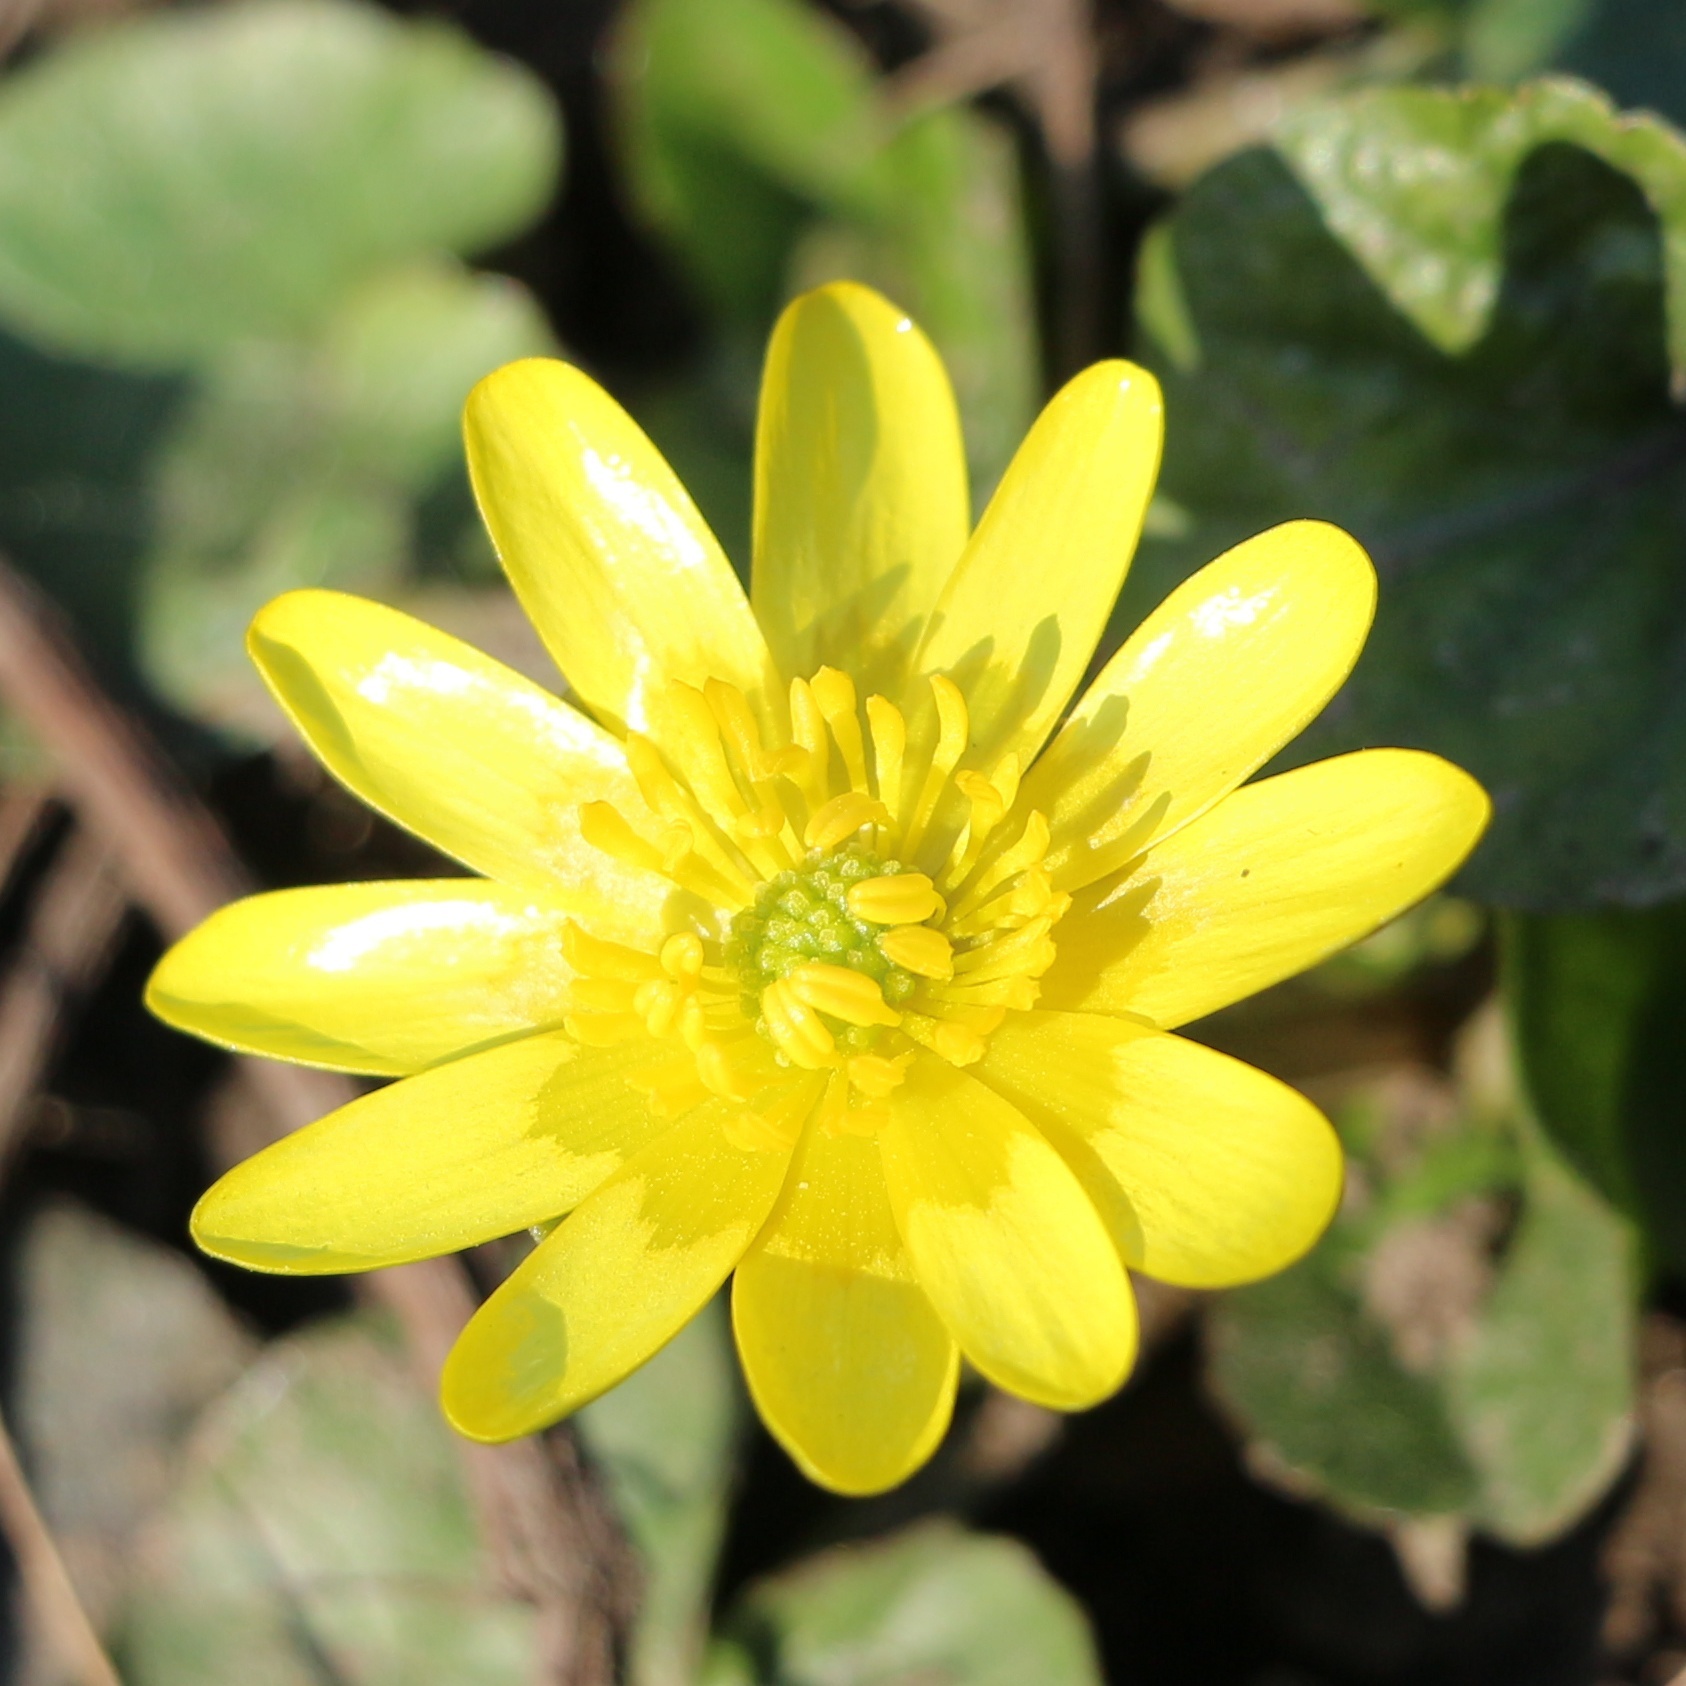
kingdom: Plantae
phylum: Tracheophyta
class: Magnoliopsida
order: Ranunculales
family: Ranunculaceae
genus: Ficaria
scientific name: Ficaria verna
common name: Lesser celandine
